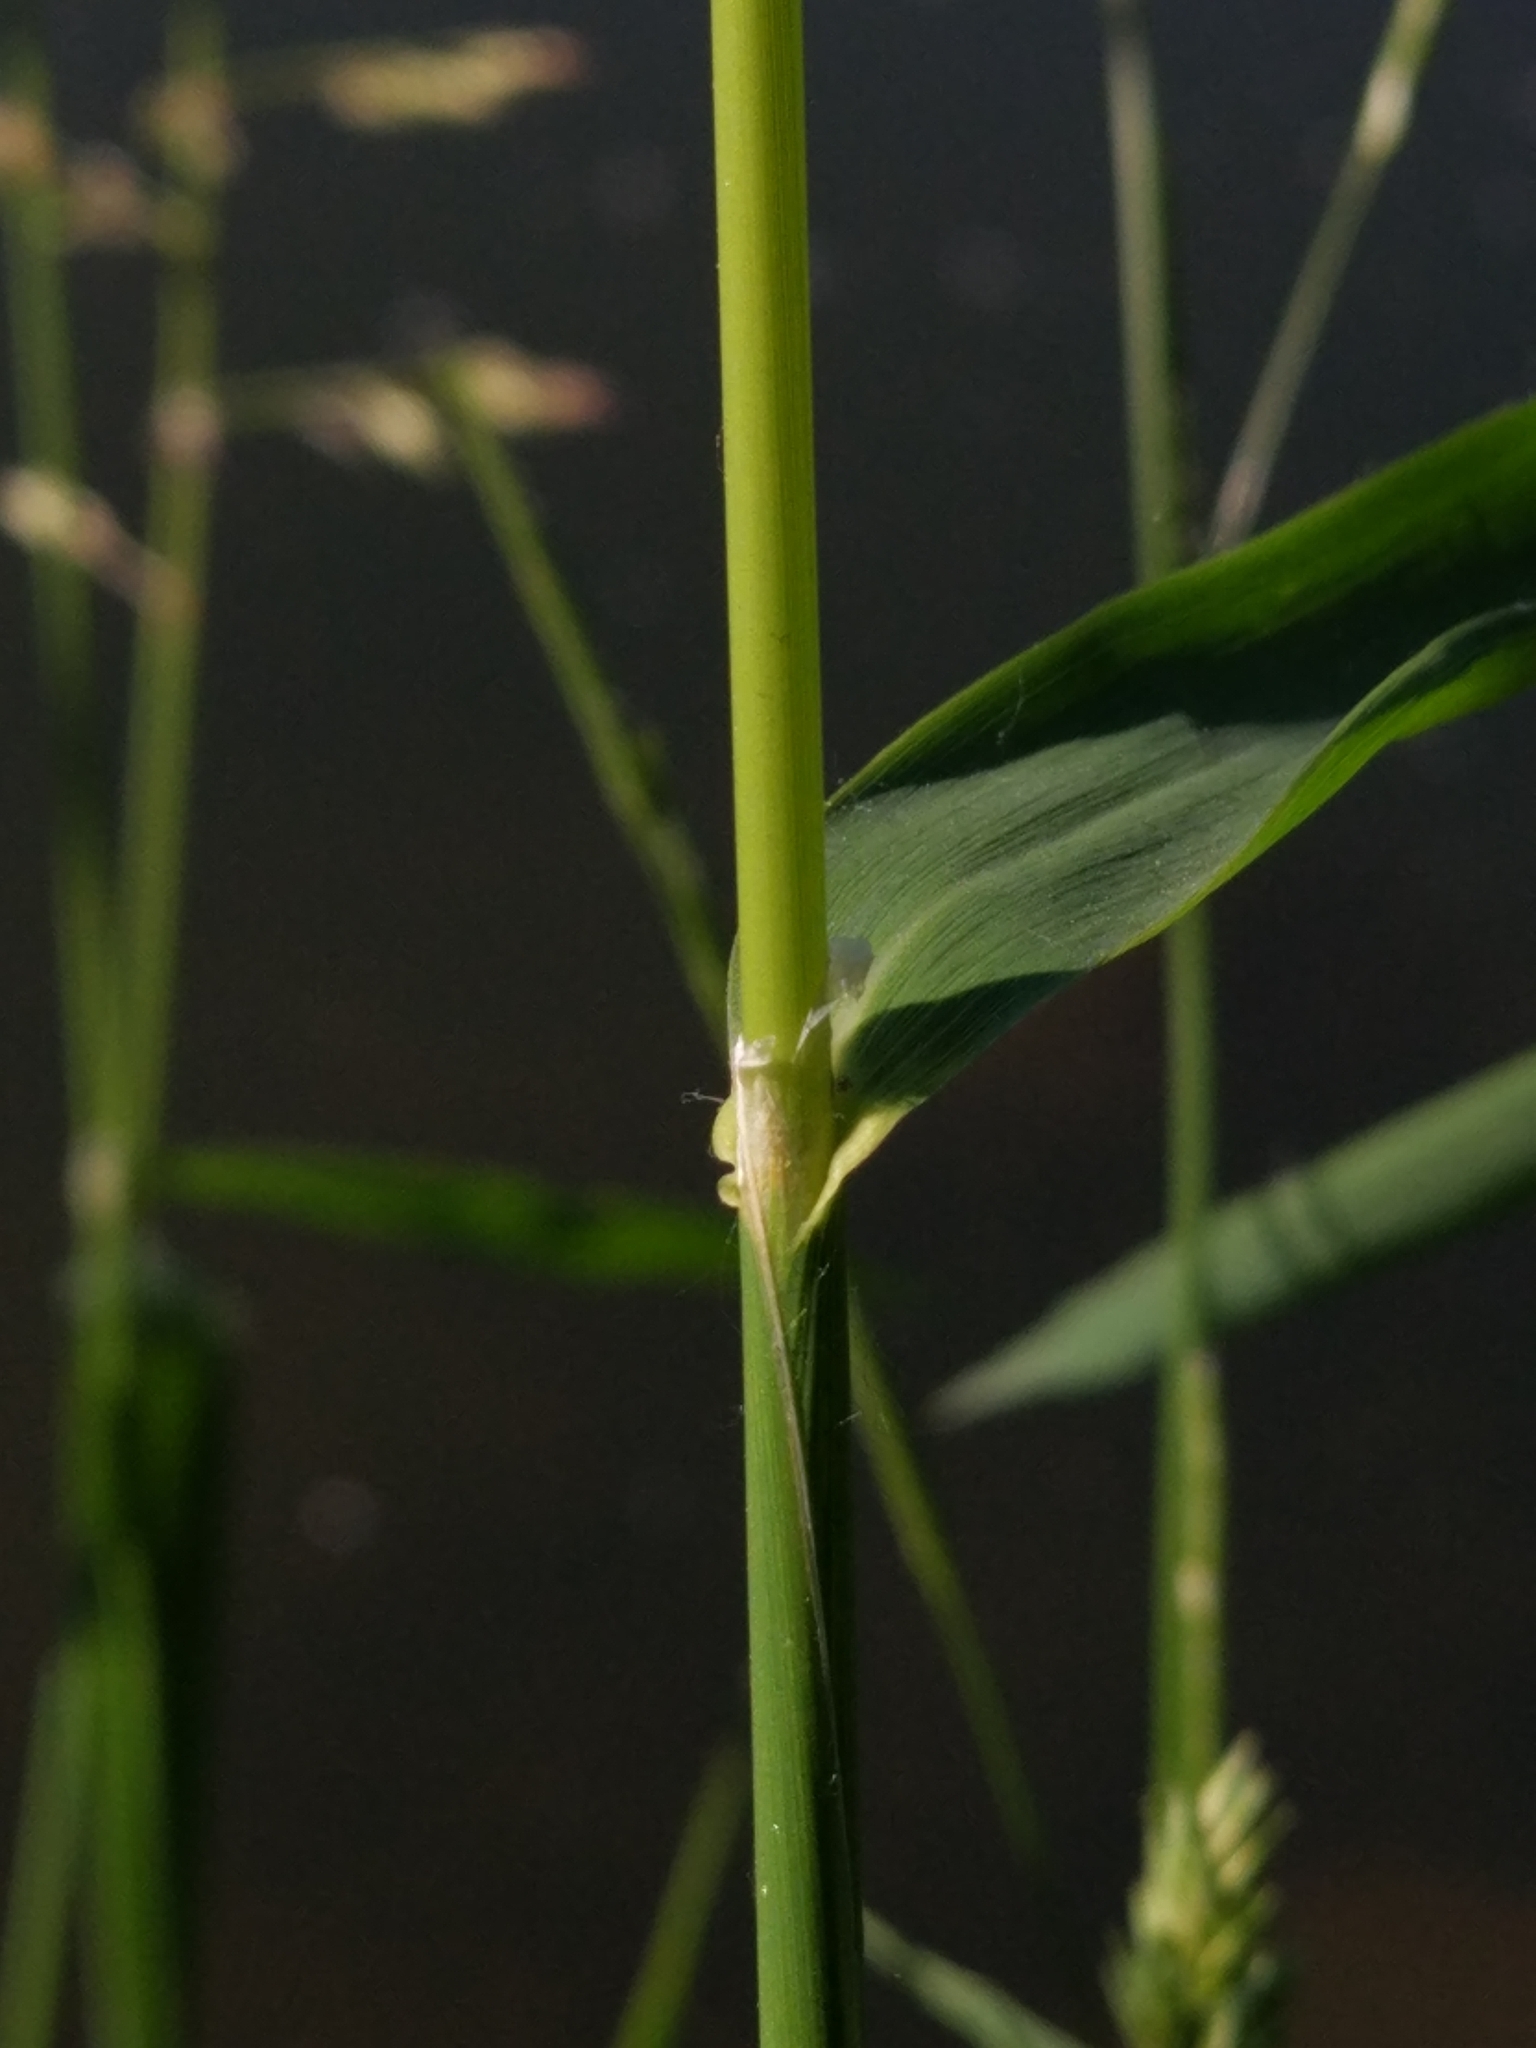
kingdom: Plantae
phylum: Tracheophyta
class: Liliopsida
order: Poales
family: Poaceae
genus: Dactylis
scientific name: Dactylis glomerata
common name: Orchardgrass
